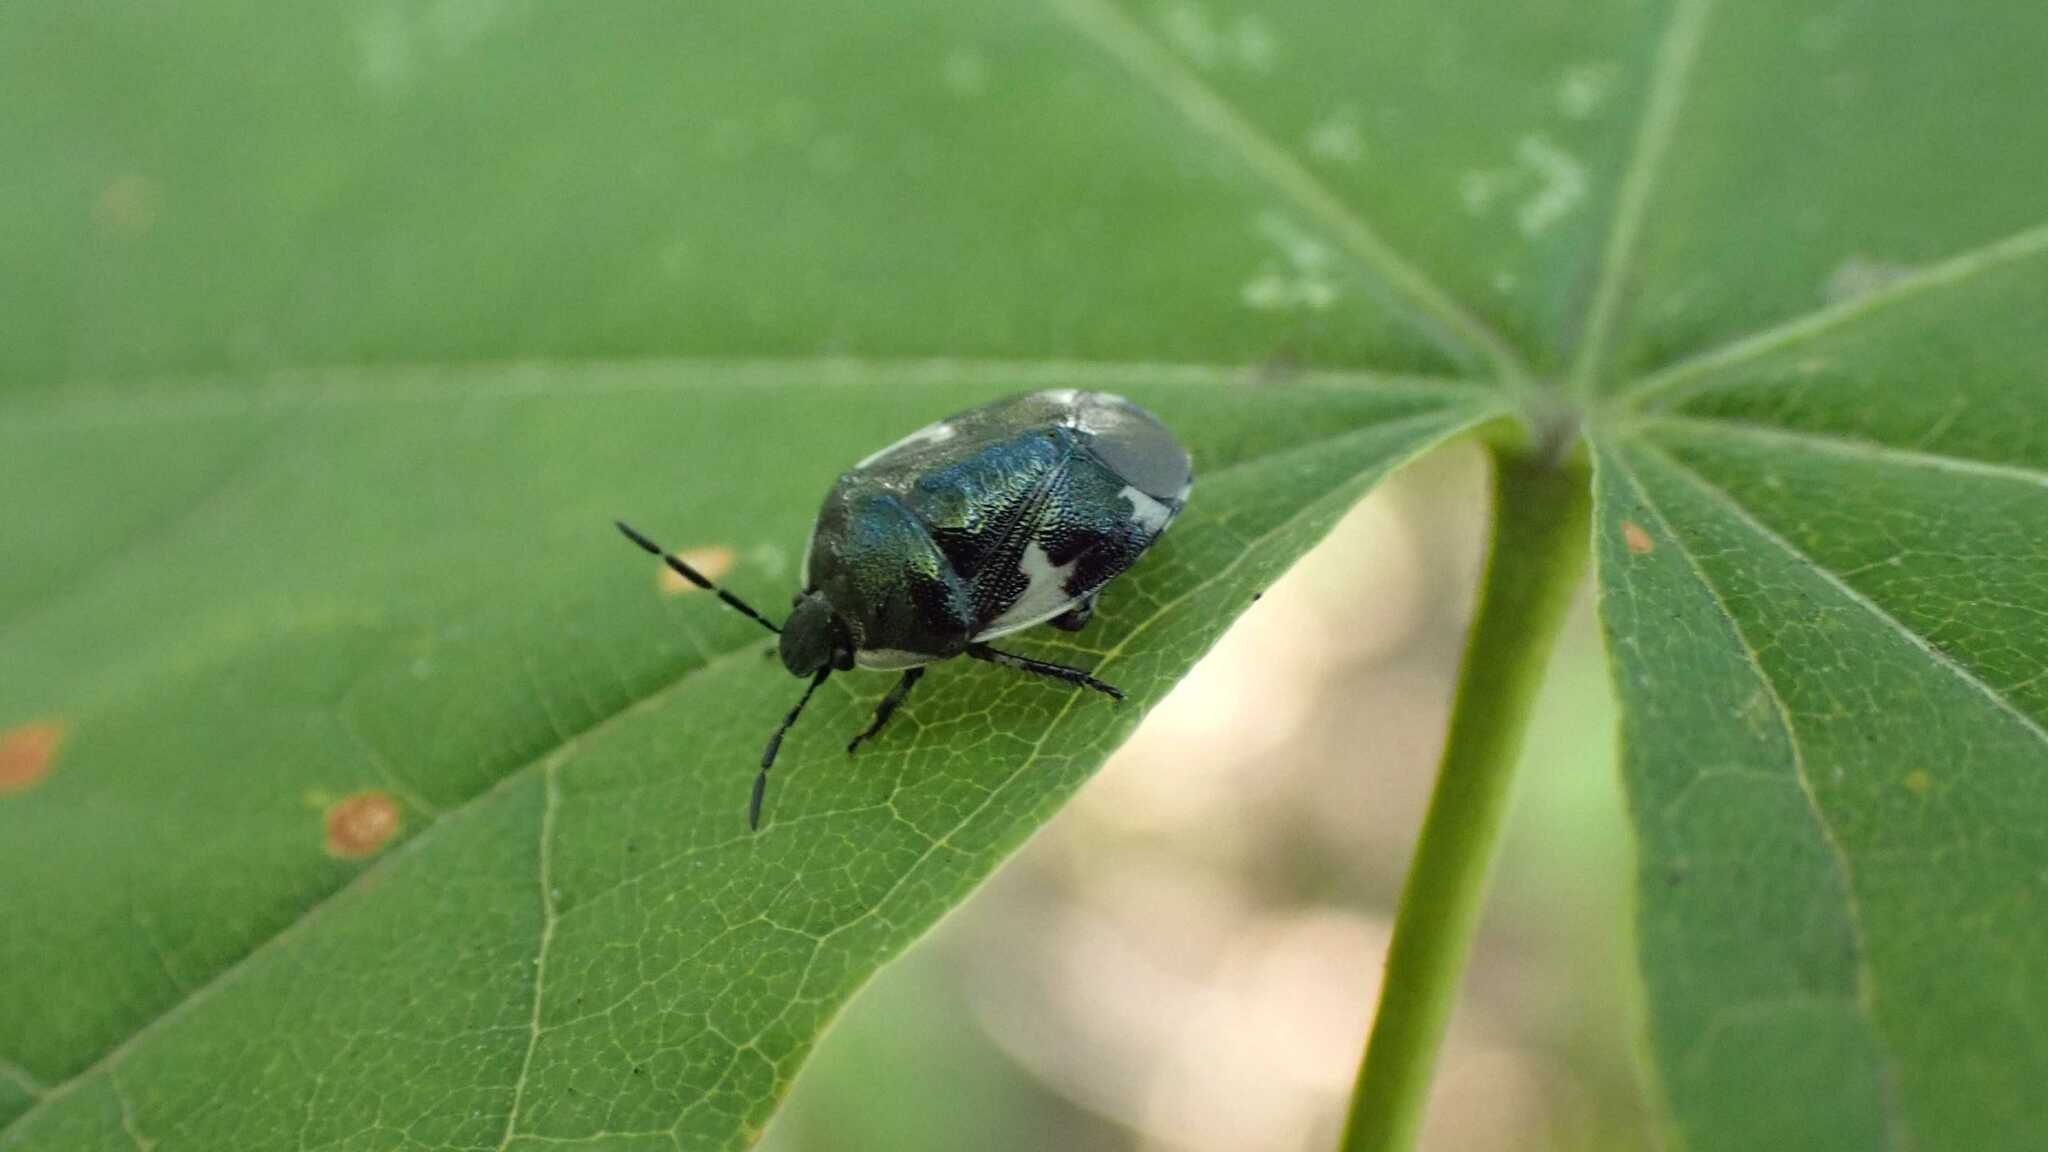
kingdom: Animalia
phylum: Arthropoda
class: Insecta
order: Hemiptera
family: Cydnidae
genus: Tritomegas
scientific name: Tritomegas sexmaculatus
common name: Rambur's pied shieldbug
